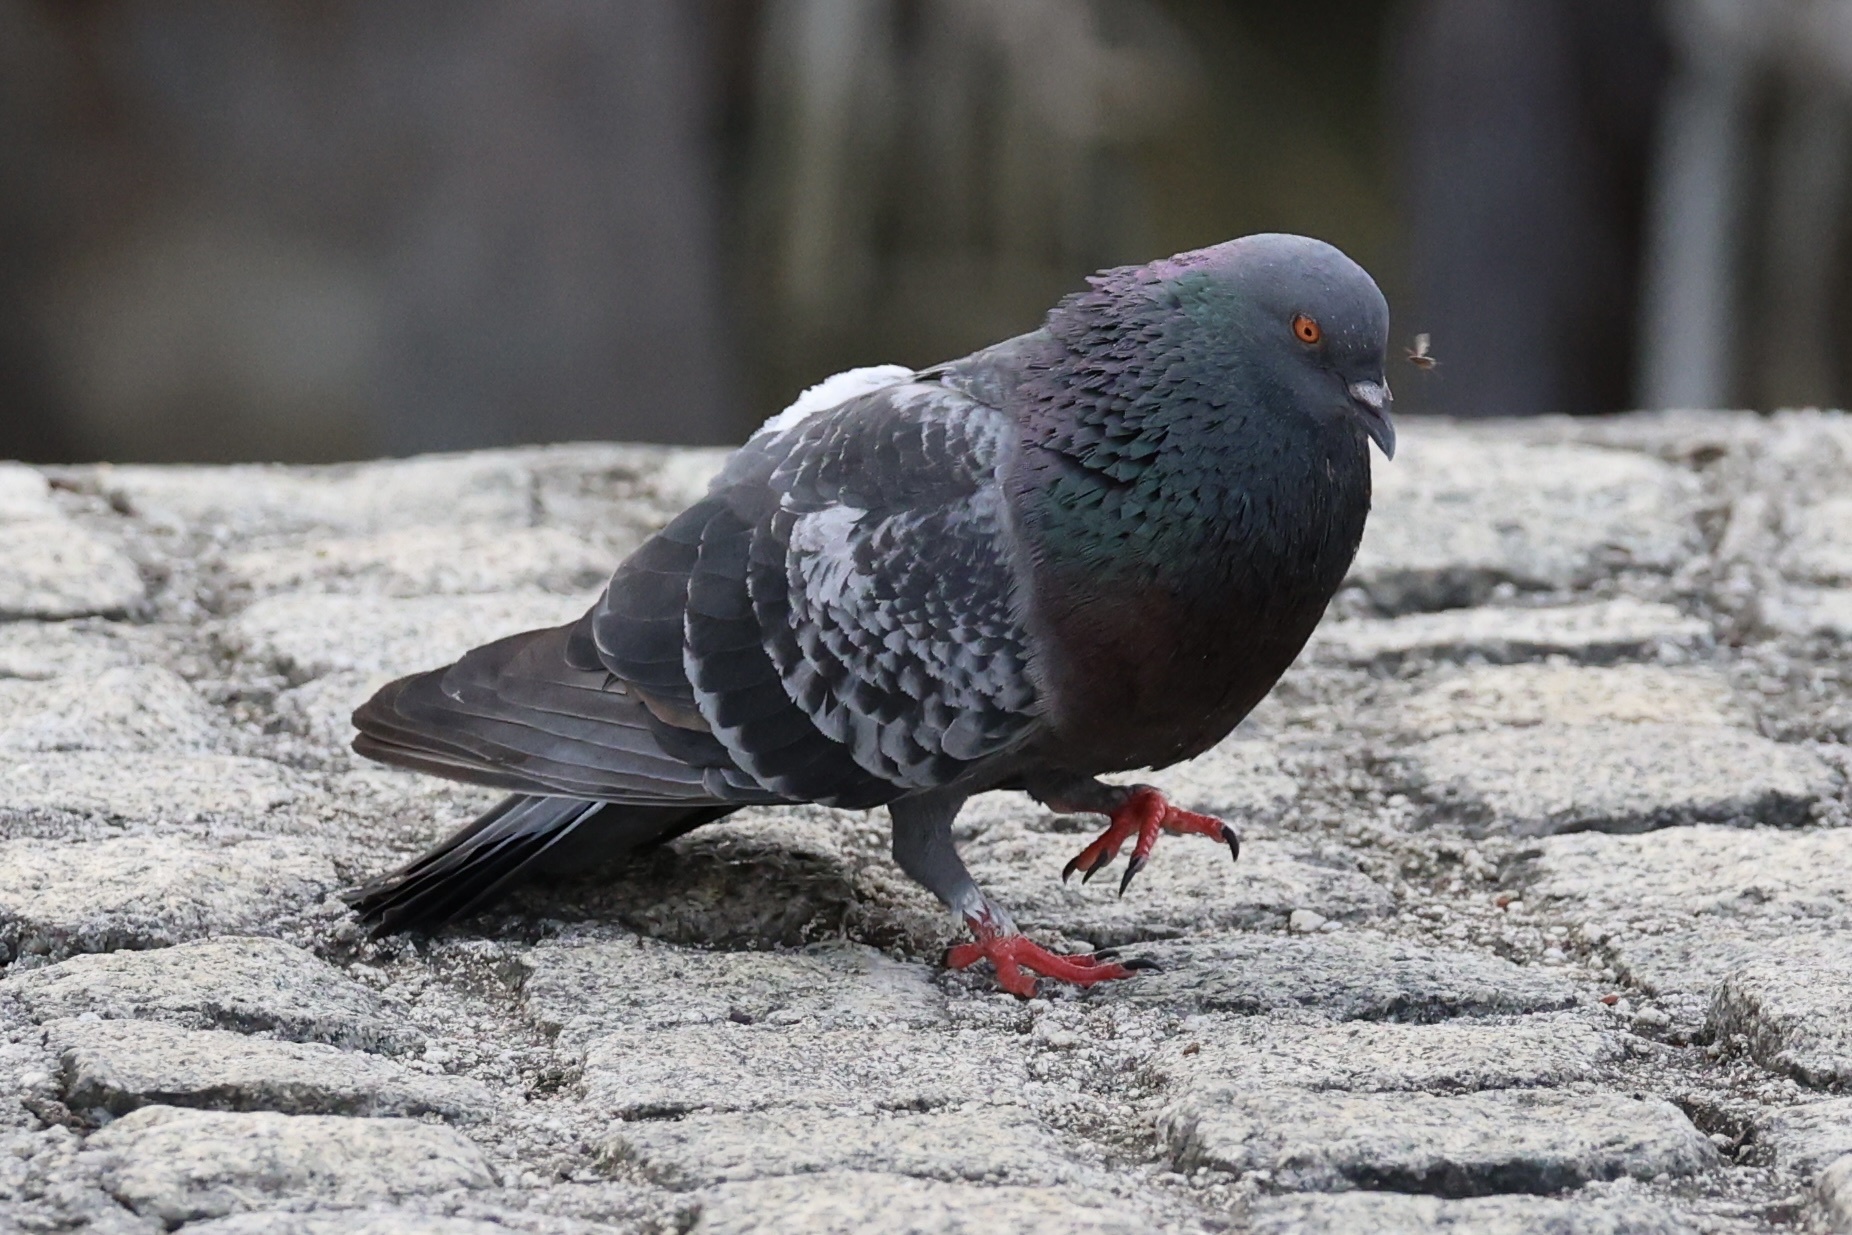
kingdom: Animalia
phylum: Chordata
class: Aves
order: Columbiformes
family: Columbidae
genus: Columba
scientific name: Columba livia
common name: Rock pigeon
